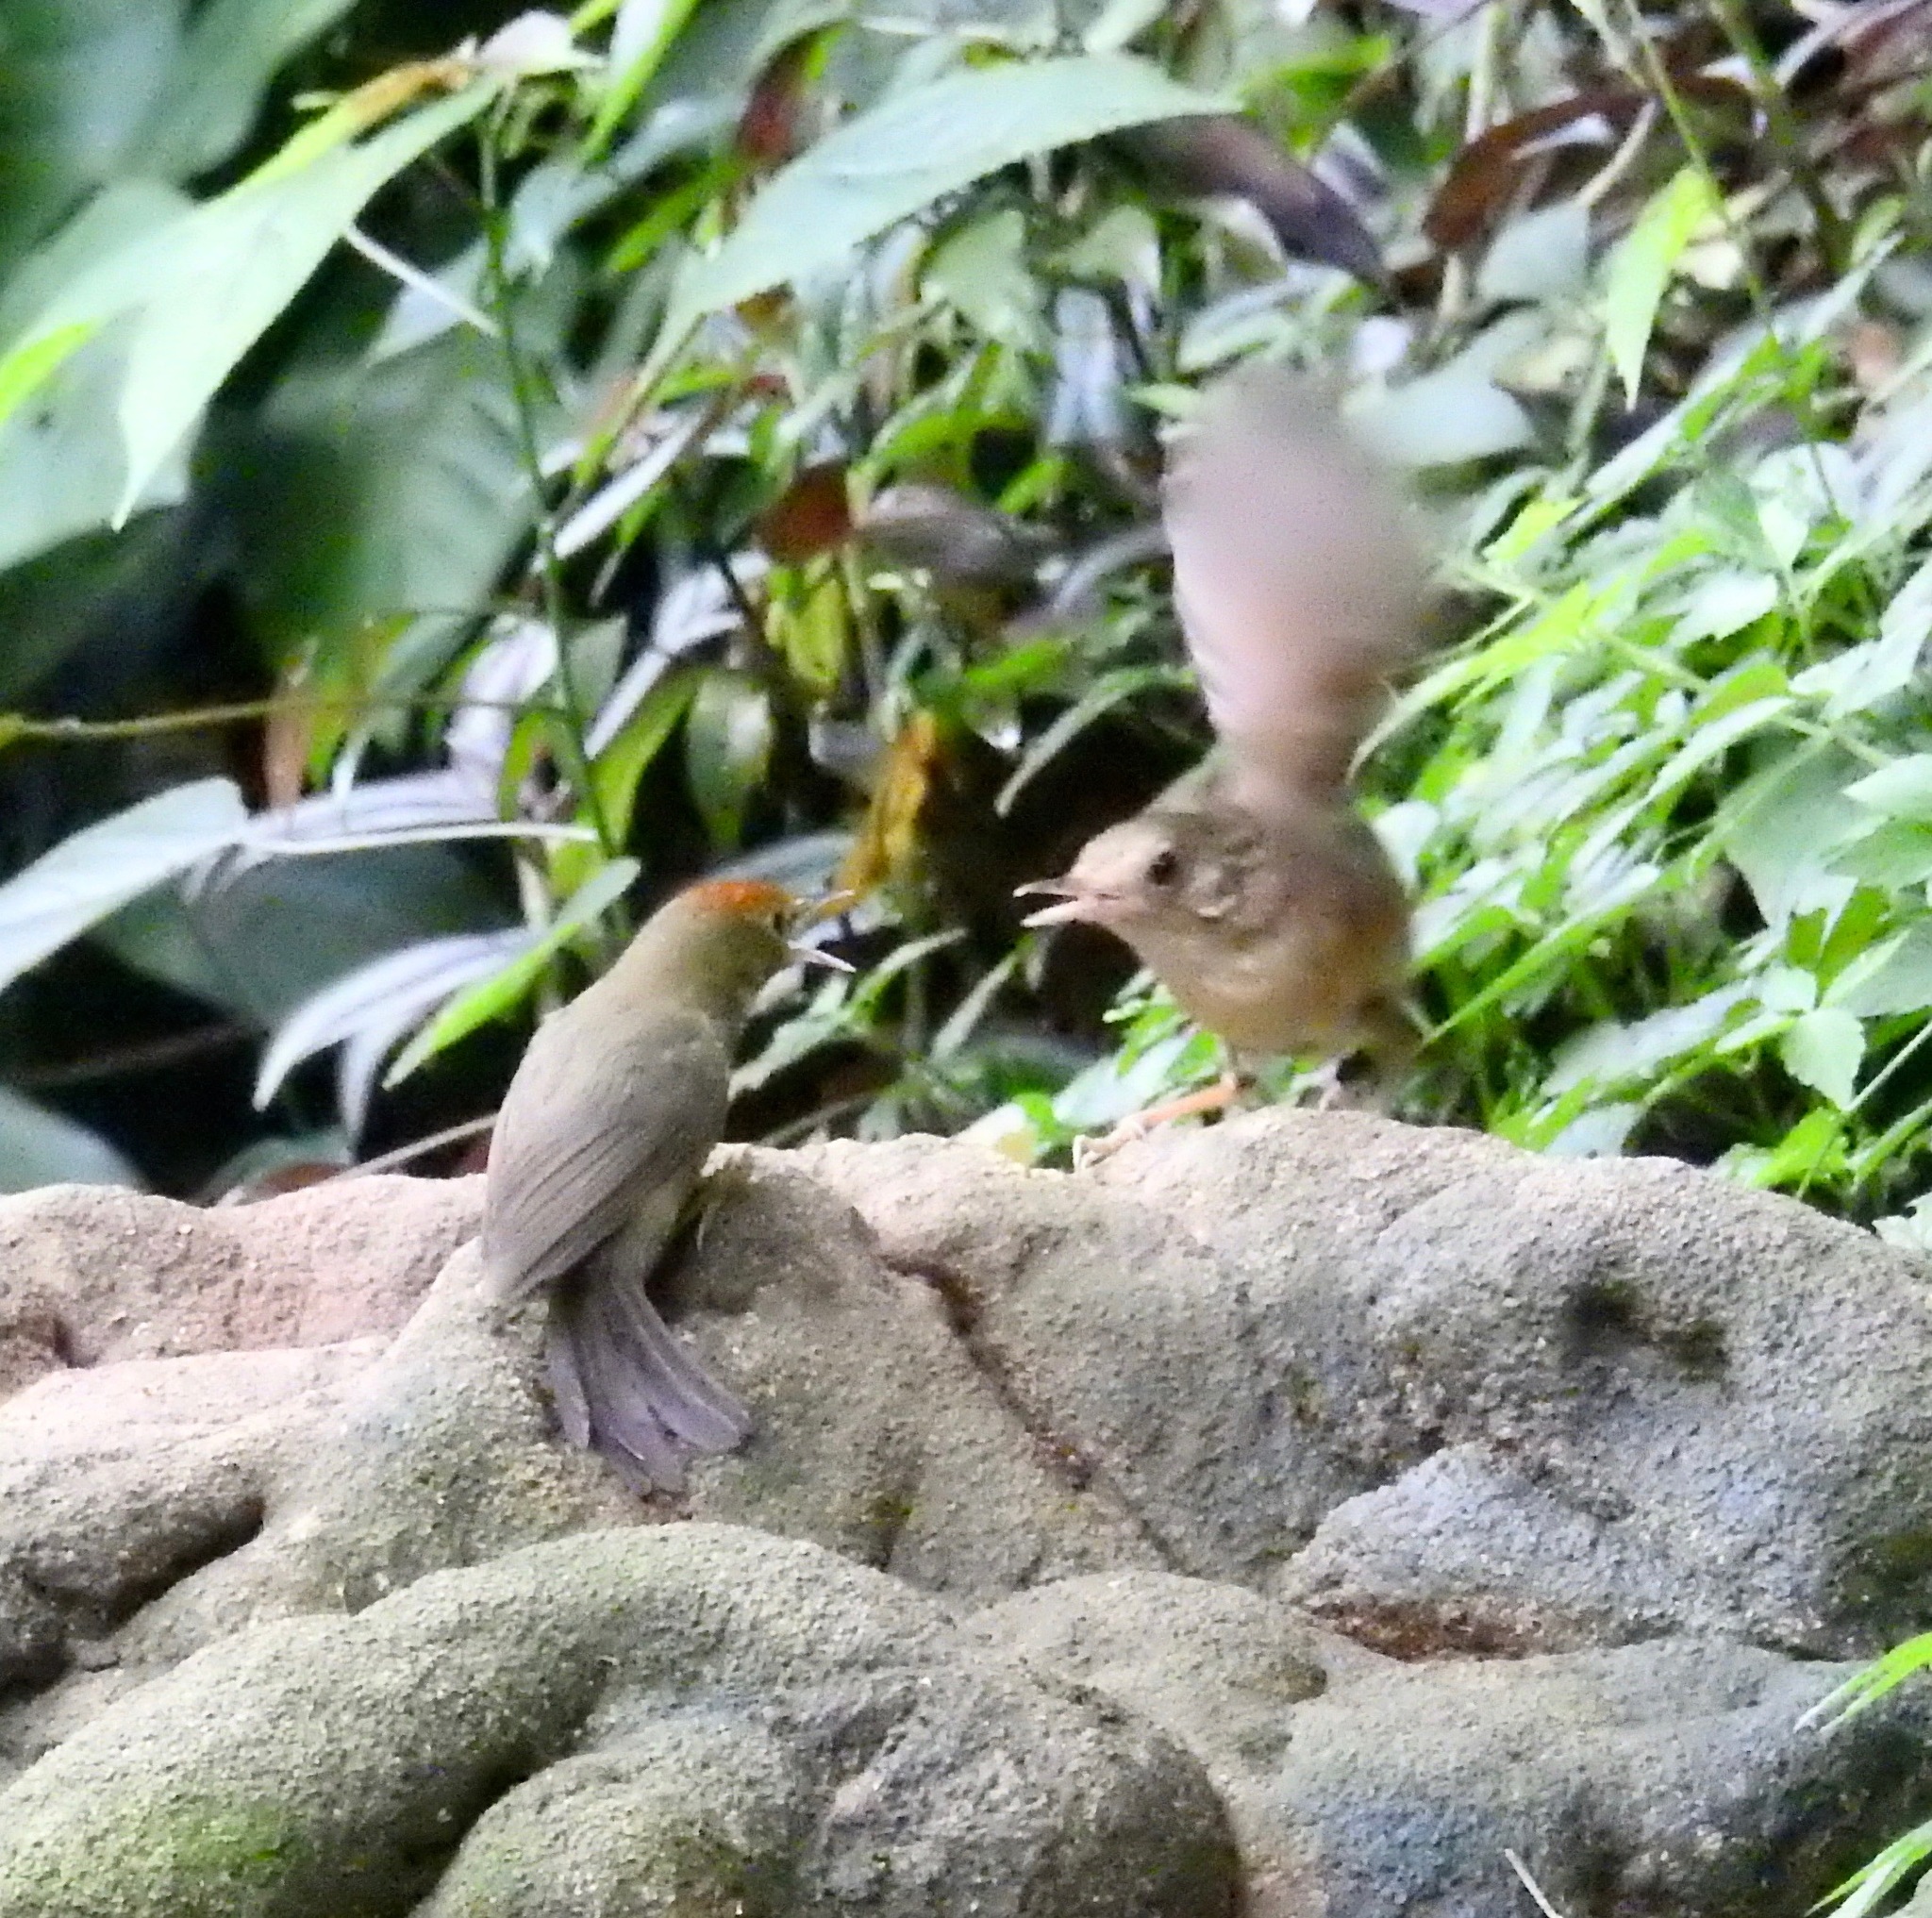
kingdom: Animalia
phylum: Chordata
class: Aves
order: Passeriformes
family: Timaliidae
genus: Stachyridopsis
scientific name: Stachyridopsis ruficeps
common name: Rufous-capped babbler
